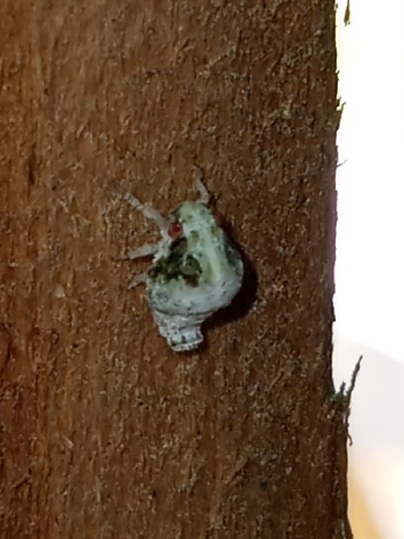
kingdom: Animalia
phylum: Arthropoda
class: Insecta
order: Hemiptera
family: Acanaloniidae
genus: Acanalonia
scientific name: Acanalonia servillei
